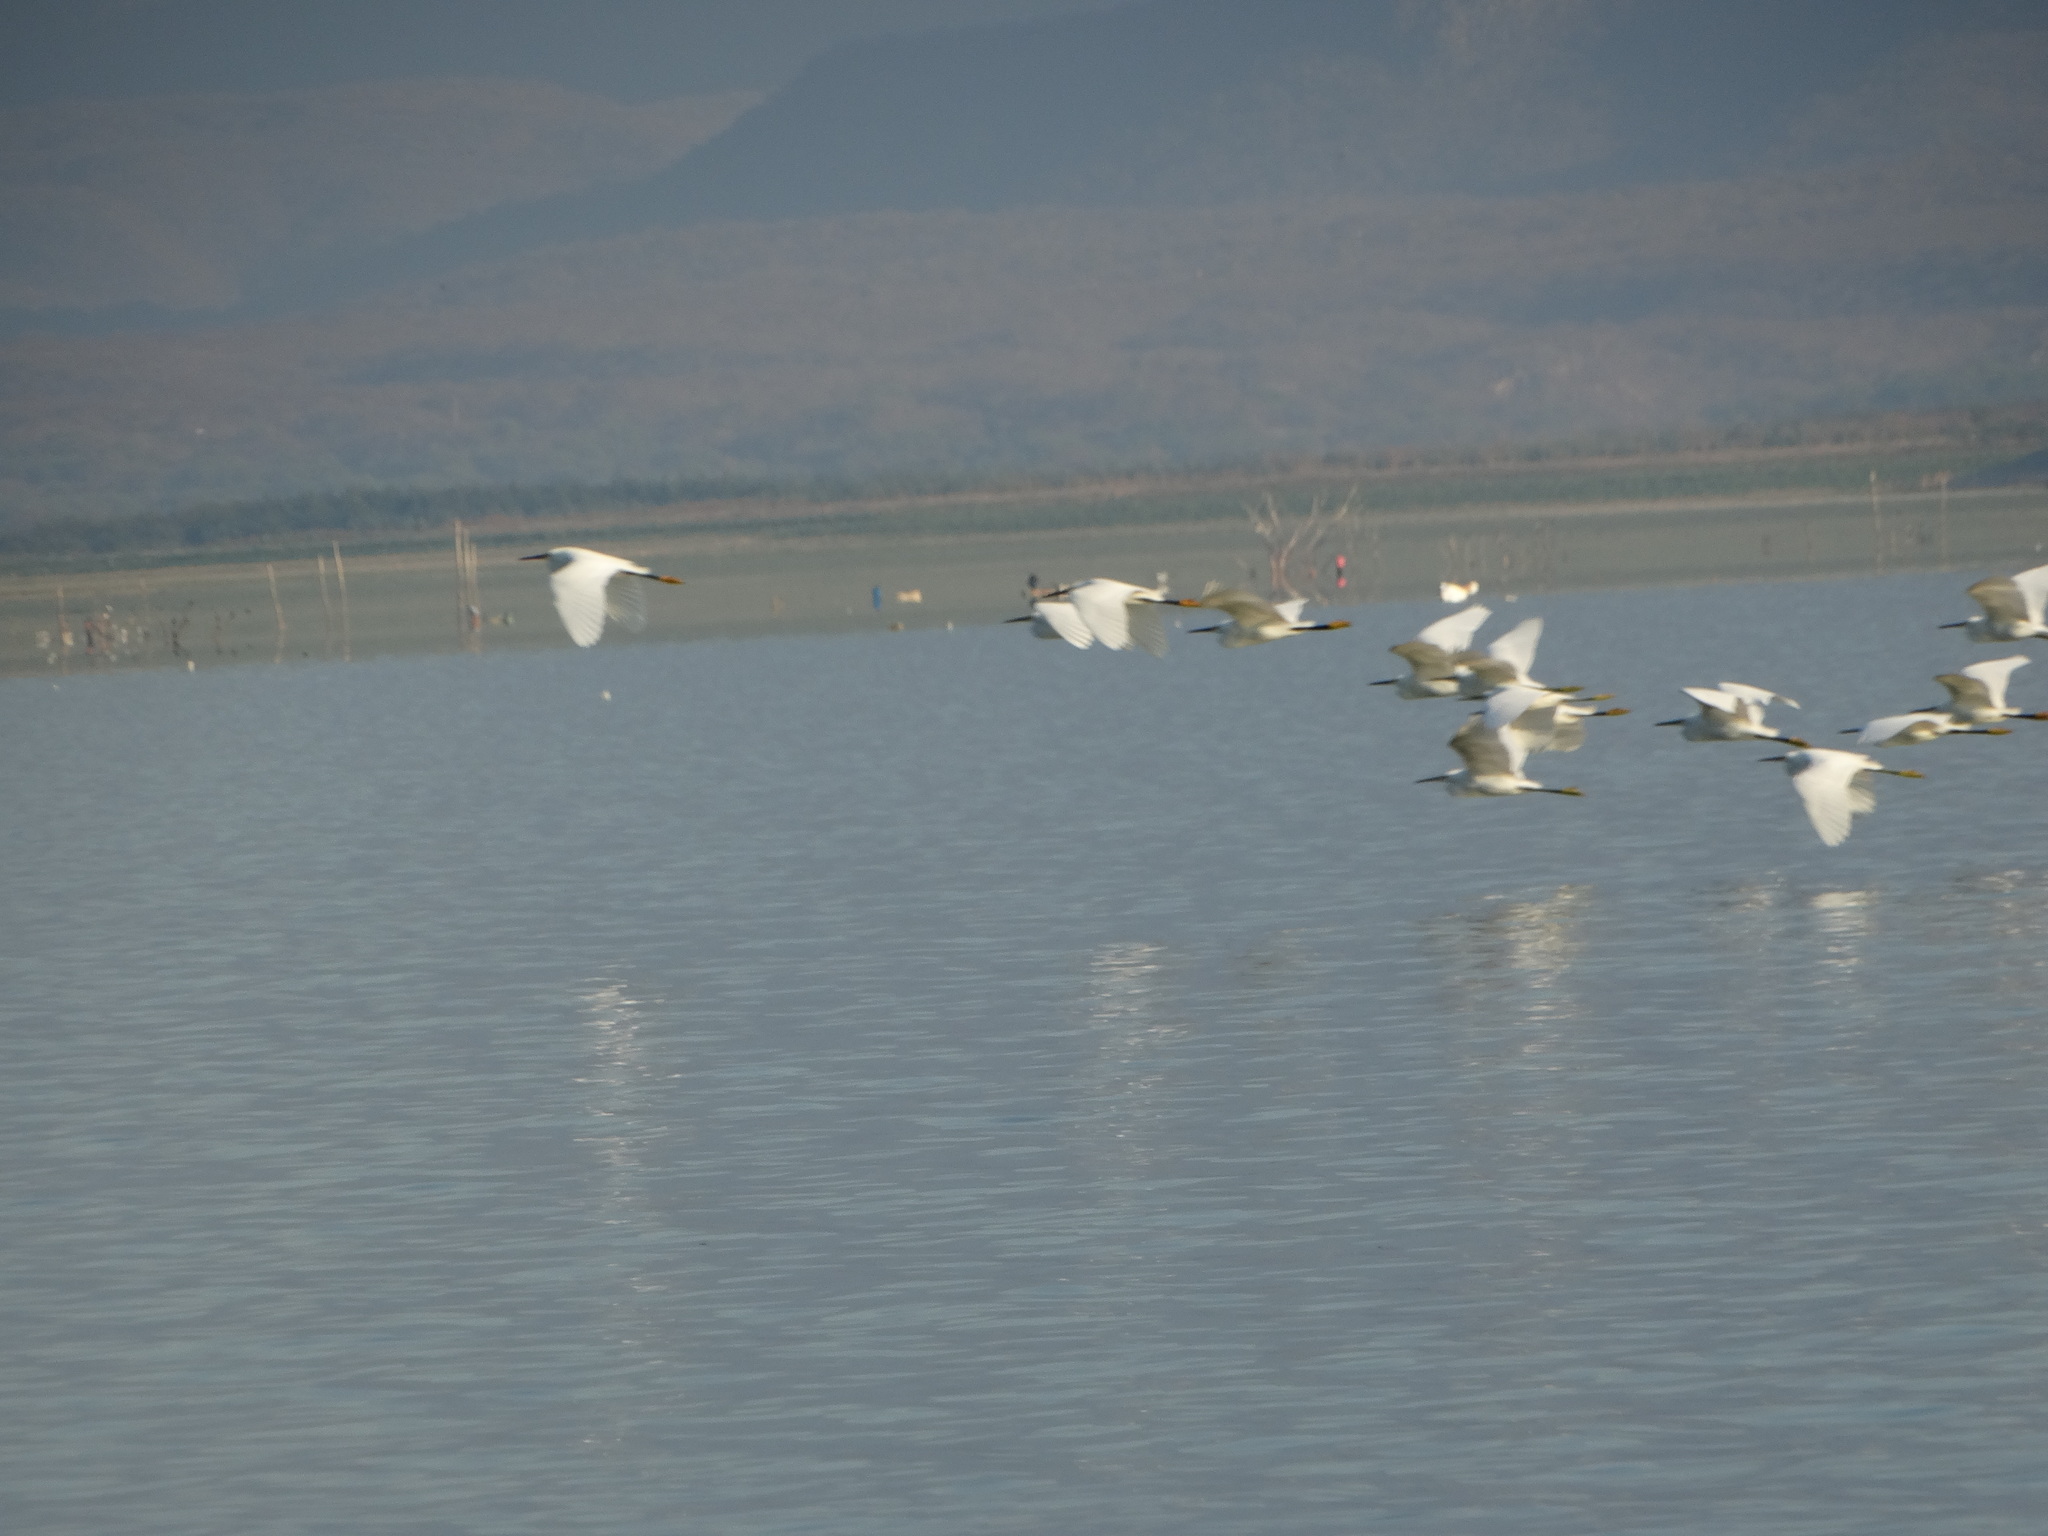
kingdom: Animalia
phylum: Chordata
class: Aves
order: Pelecaniformes
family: Ardeidae
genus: Egretta
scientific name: Egretta thula
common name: Snowy egret
